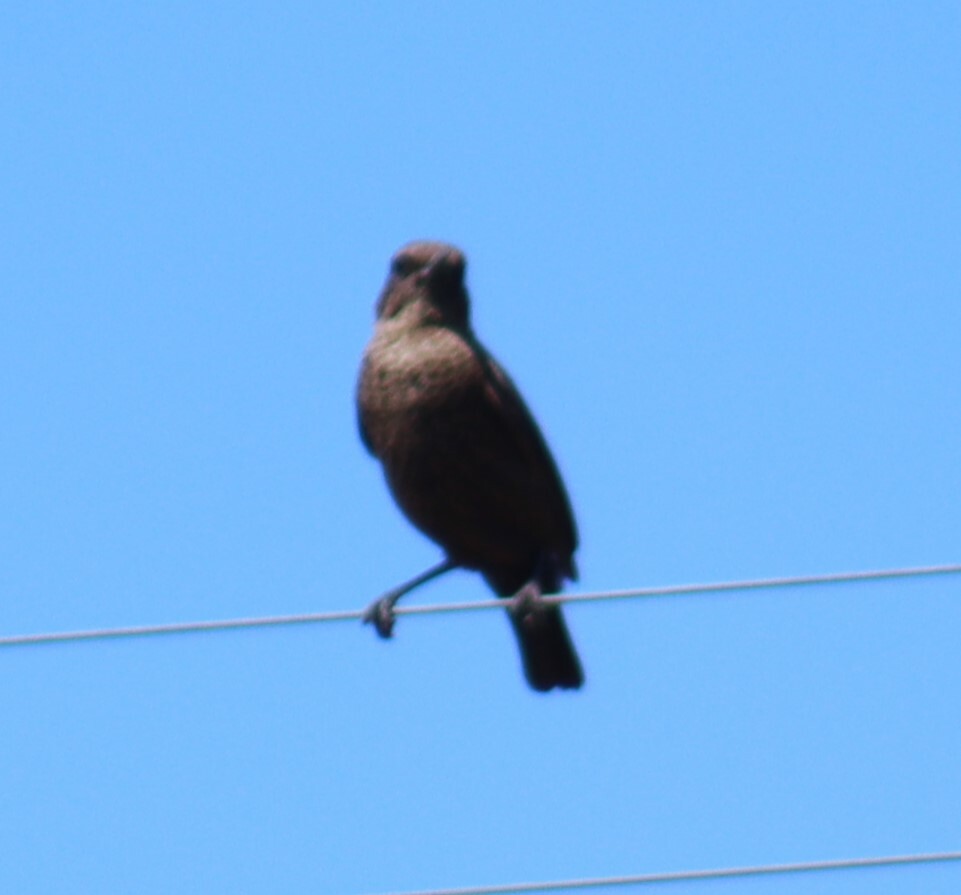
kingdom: Animalia
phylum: Chordata
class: Aves
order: Passeriformes
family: Muscicapidae
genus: Myrmecocichla
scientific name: Myrmecocichla formicivora
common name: Ant-eating chat
